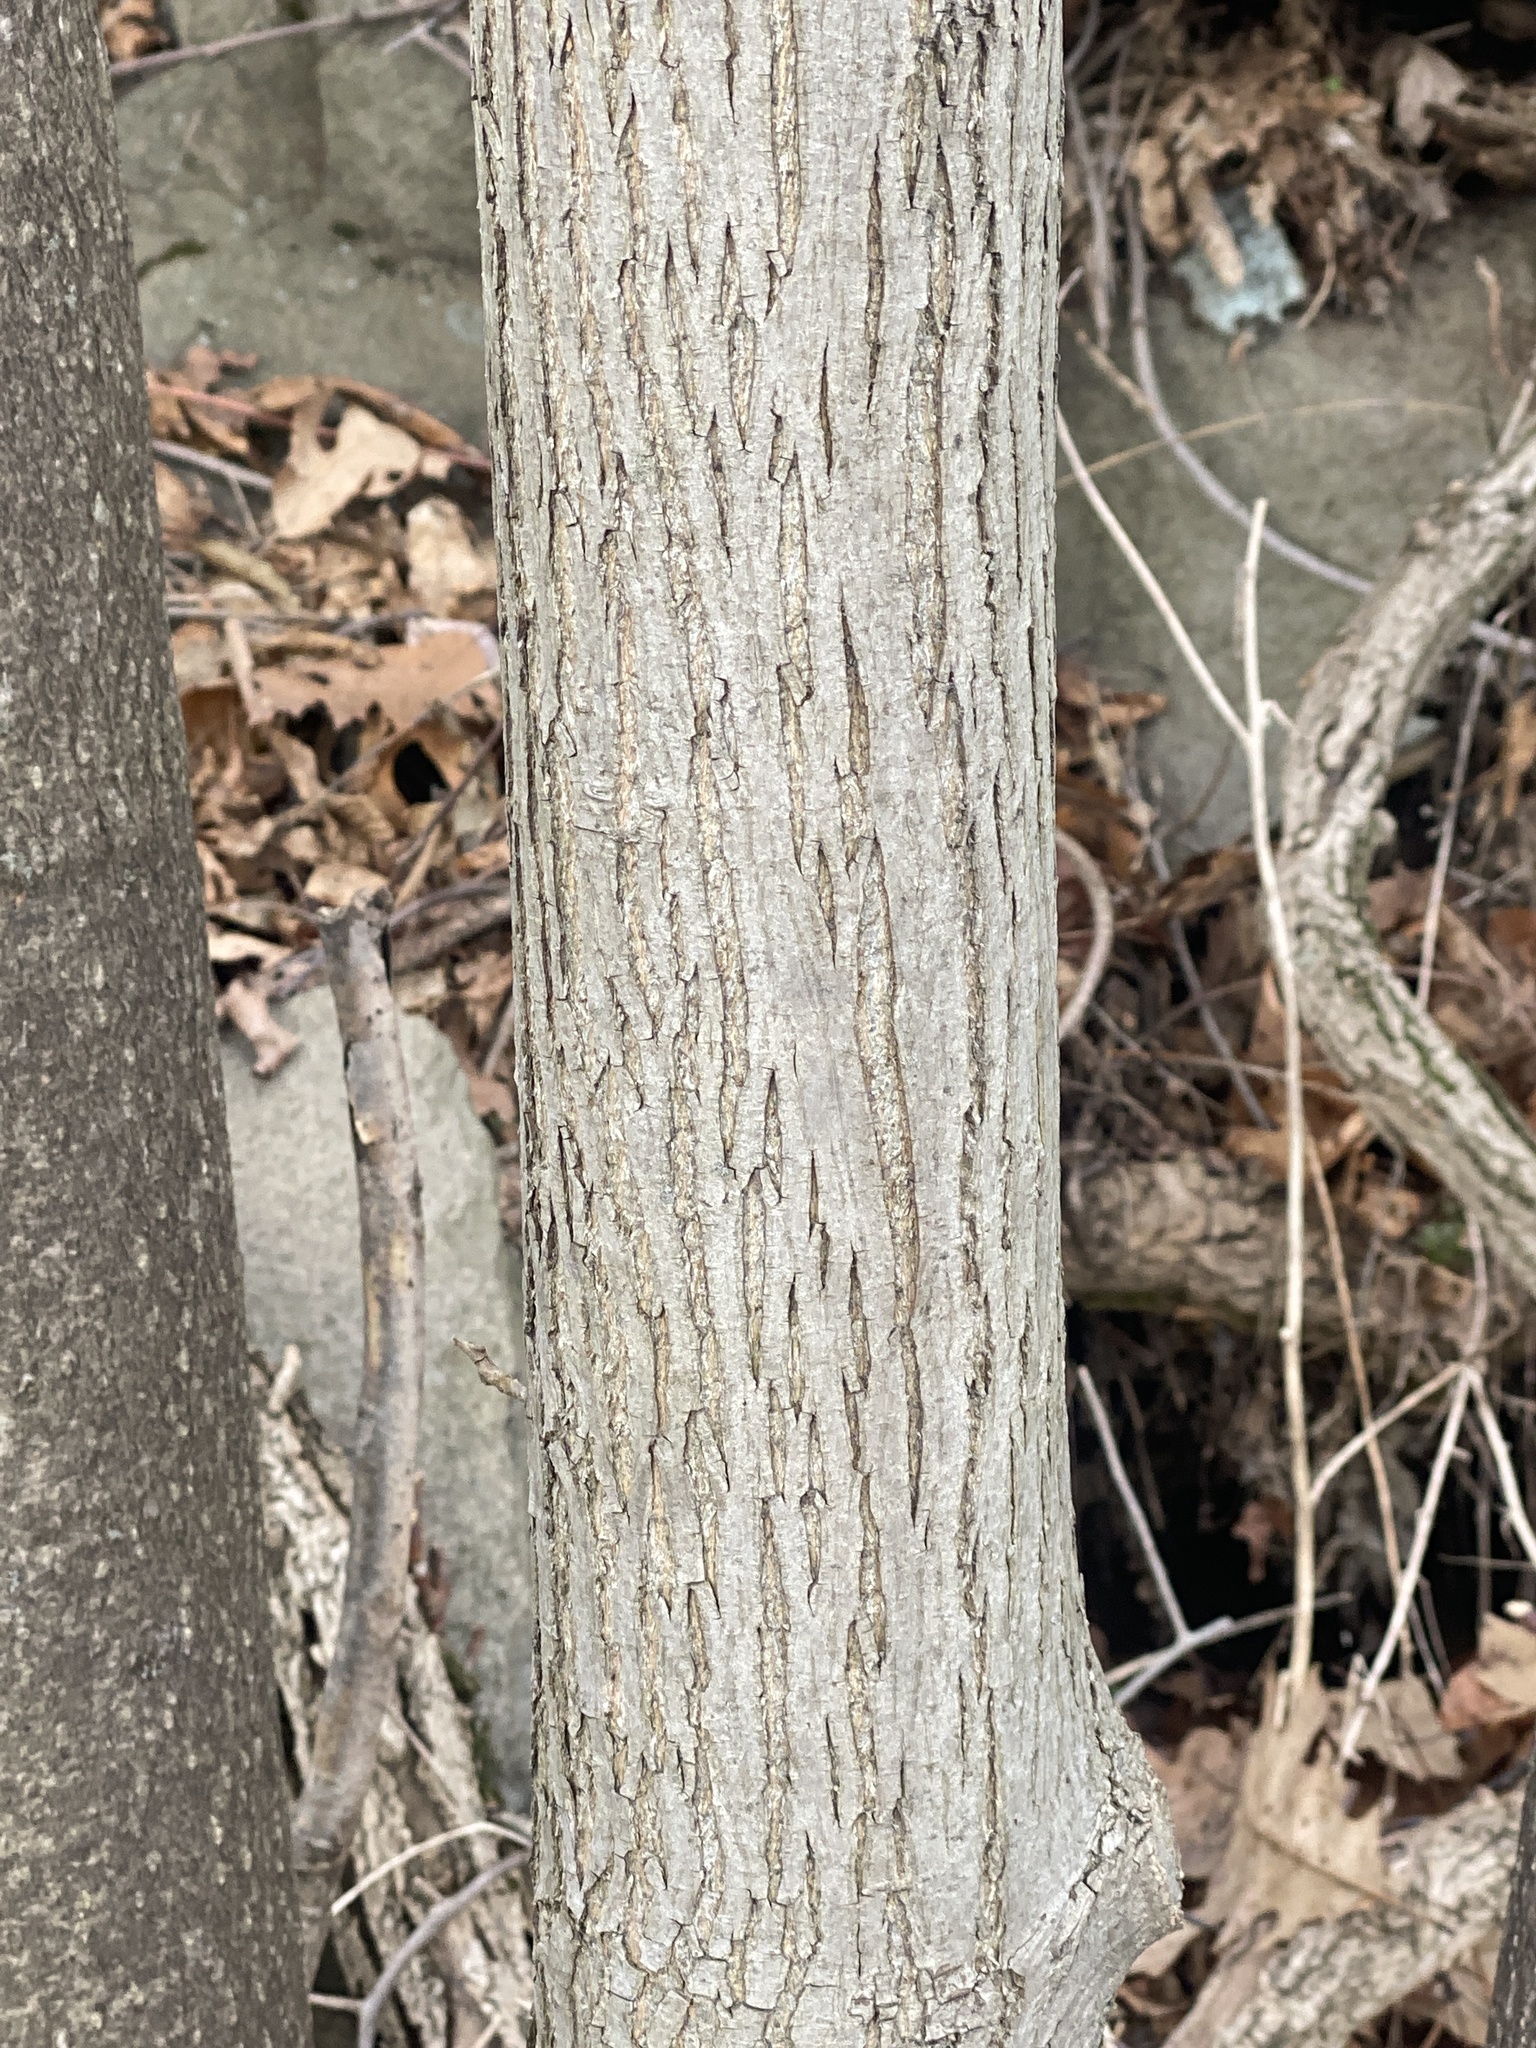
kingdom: Plantae
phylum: Tracheophyta
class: Magnoliopsida
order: Fagales
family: Juglandaceae
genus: Carya
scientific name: Carya cordiformis
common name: Bitternut hickory
